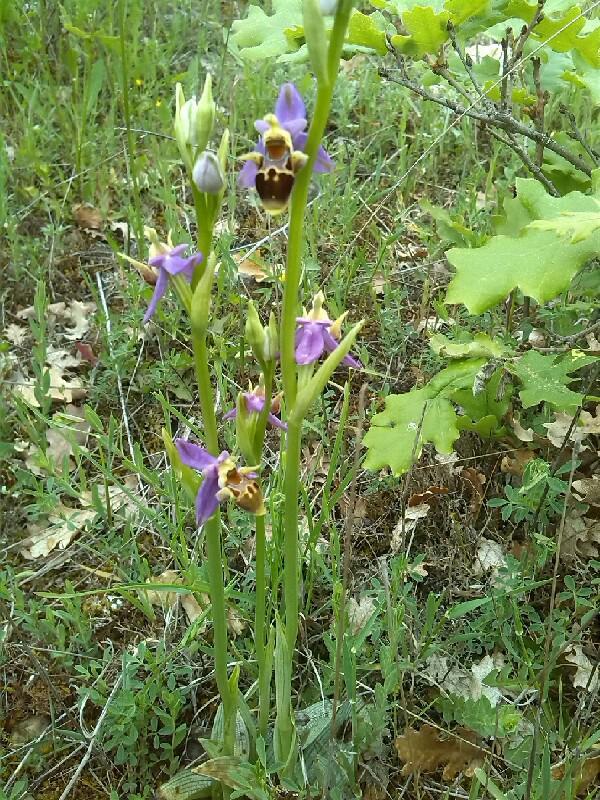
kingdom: Plantae
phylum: Tracheophyta
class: Liliopsida
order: Asparagales
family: Orchidaceae
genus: Ophrys
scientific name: Ophrys scolopax
